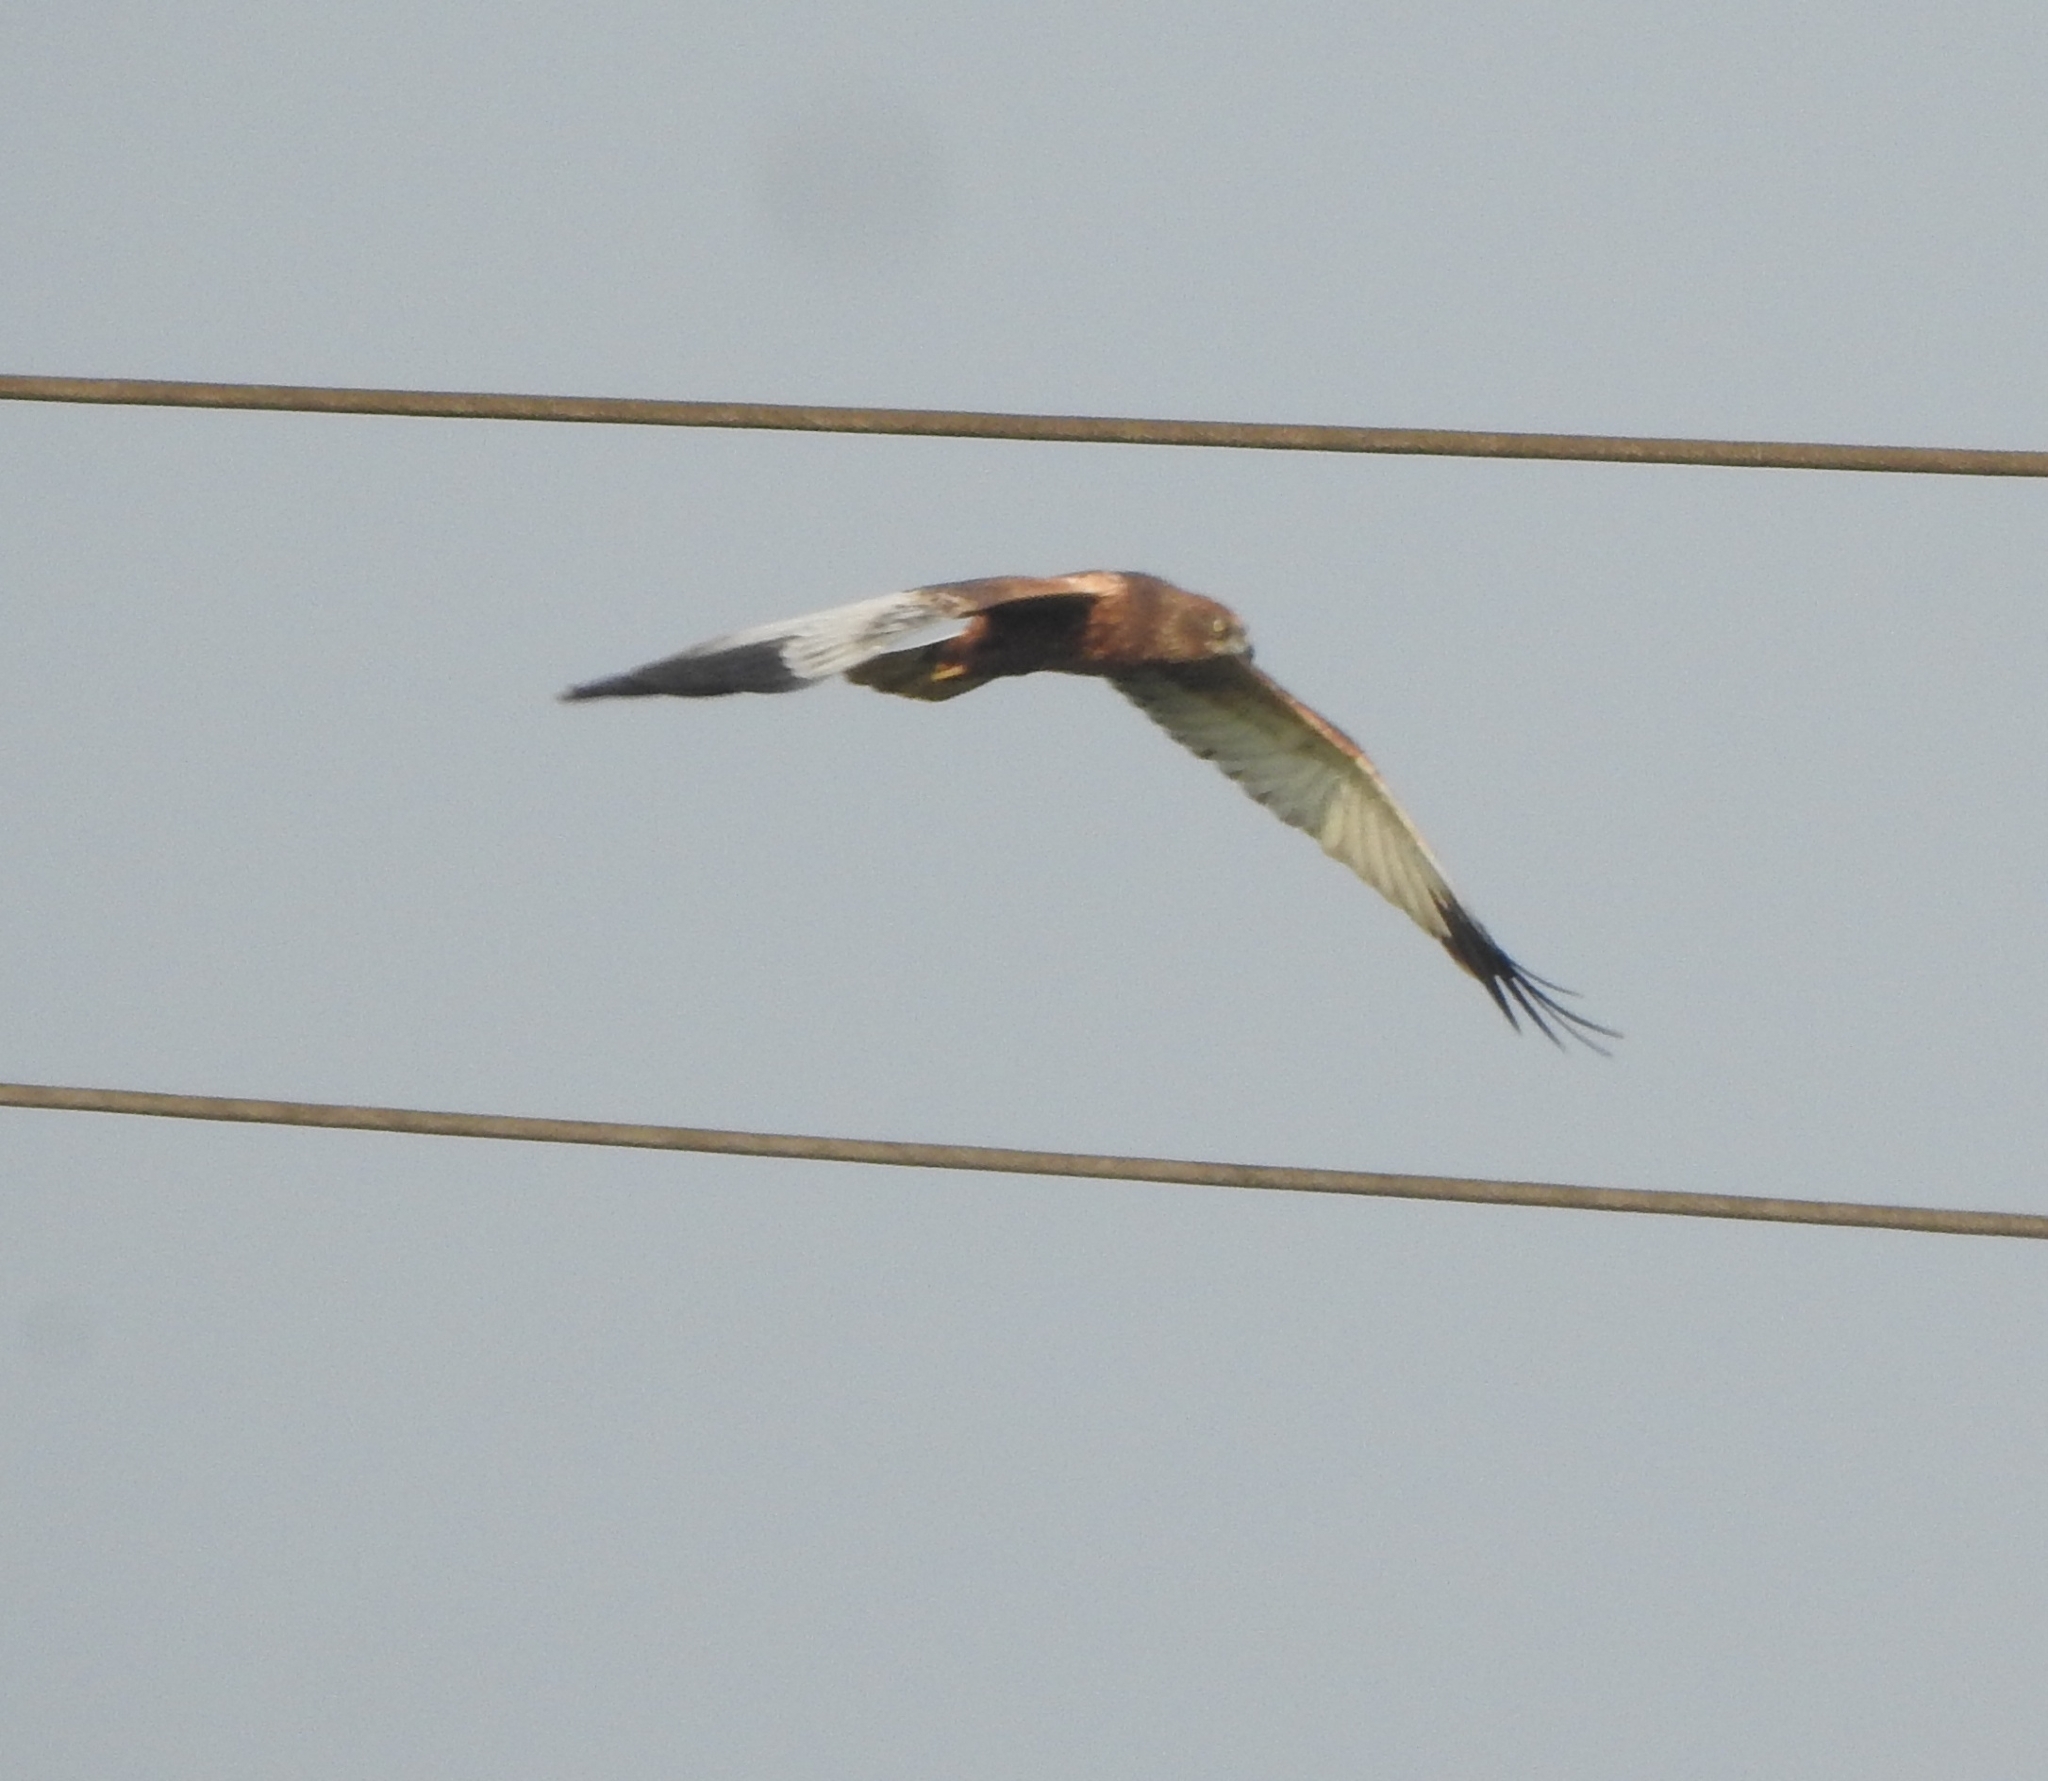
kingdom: Animalia
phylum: Chordata
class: Aves
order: Accipitriformes
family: Accipitridae
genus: Circus
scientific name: Circus aeruginosus
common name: Western marsh harrier
